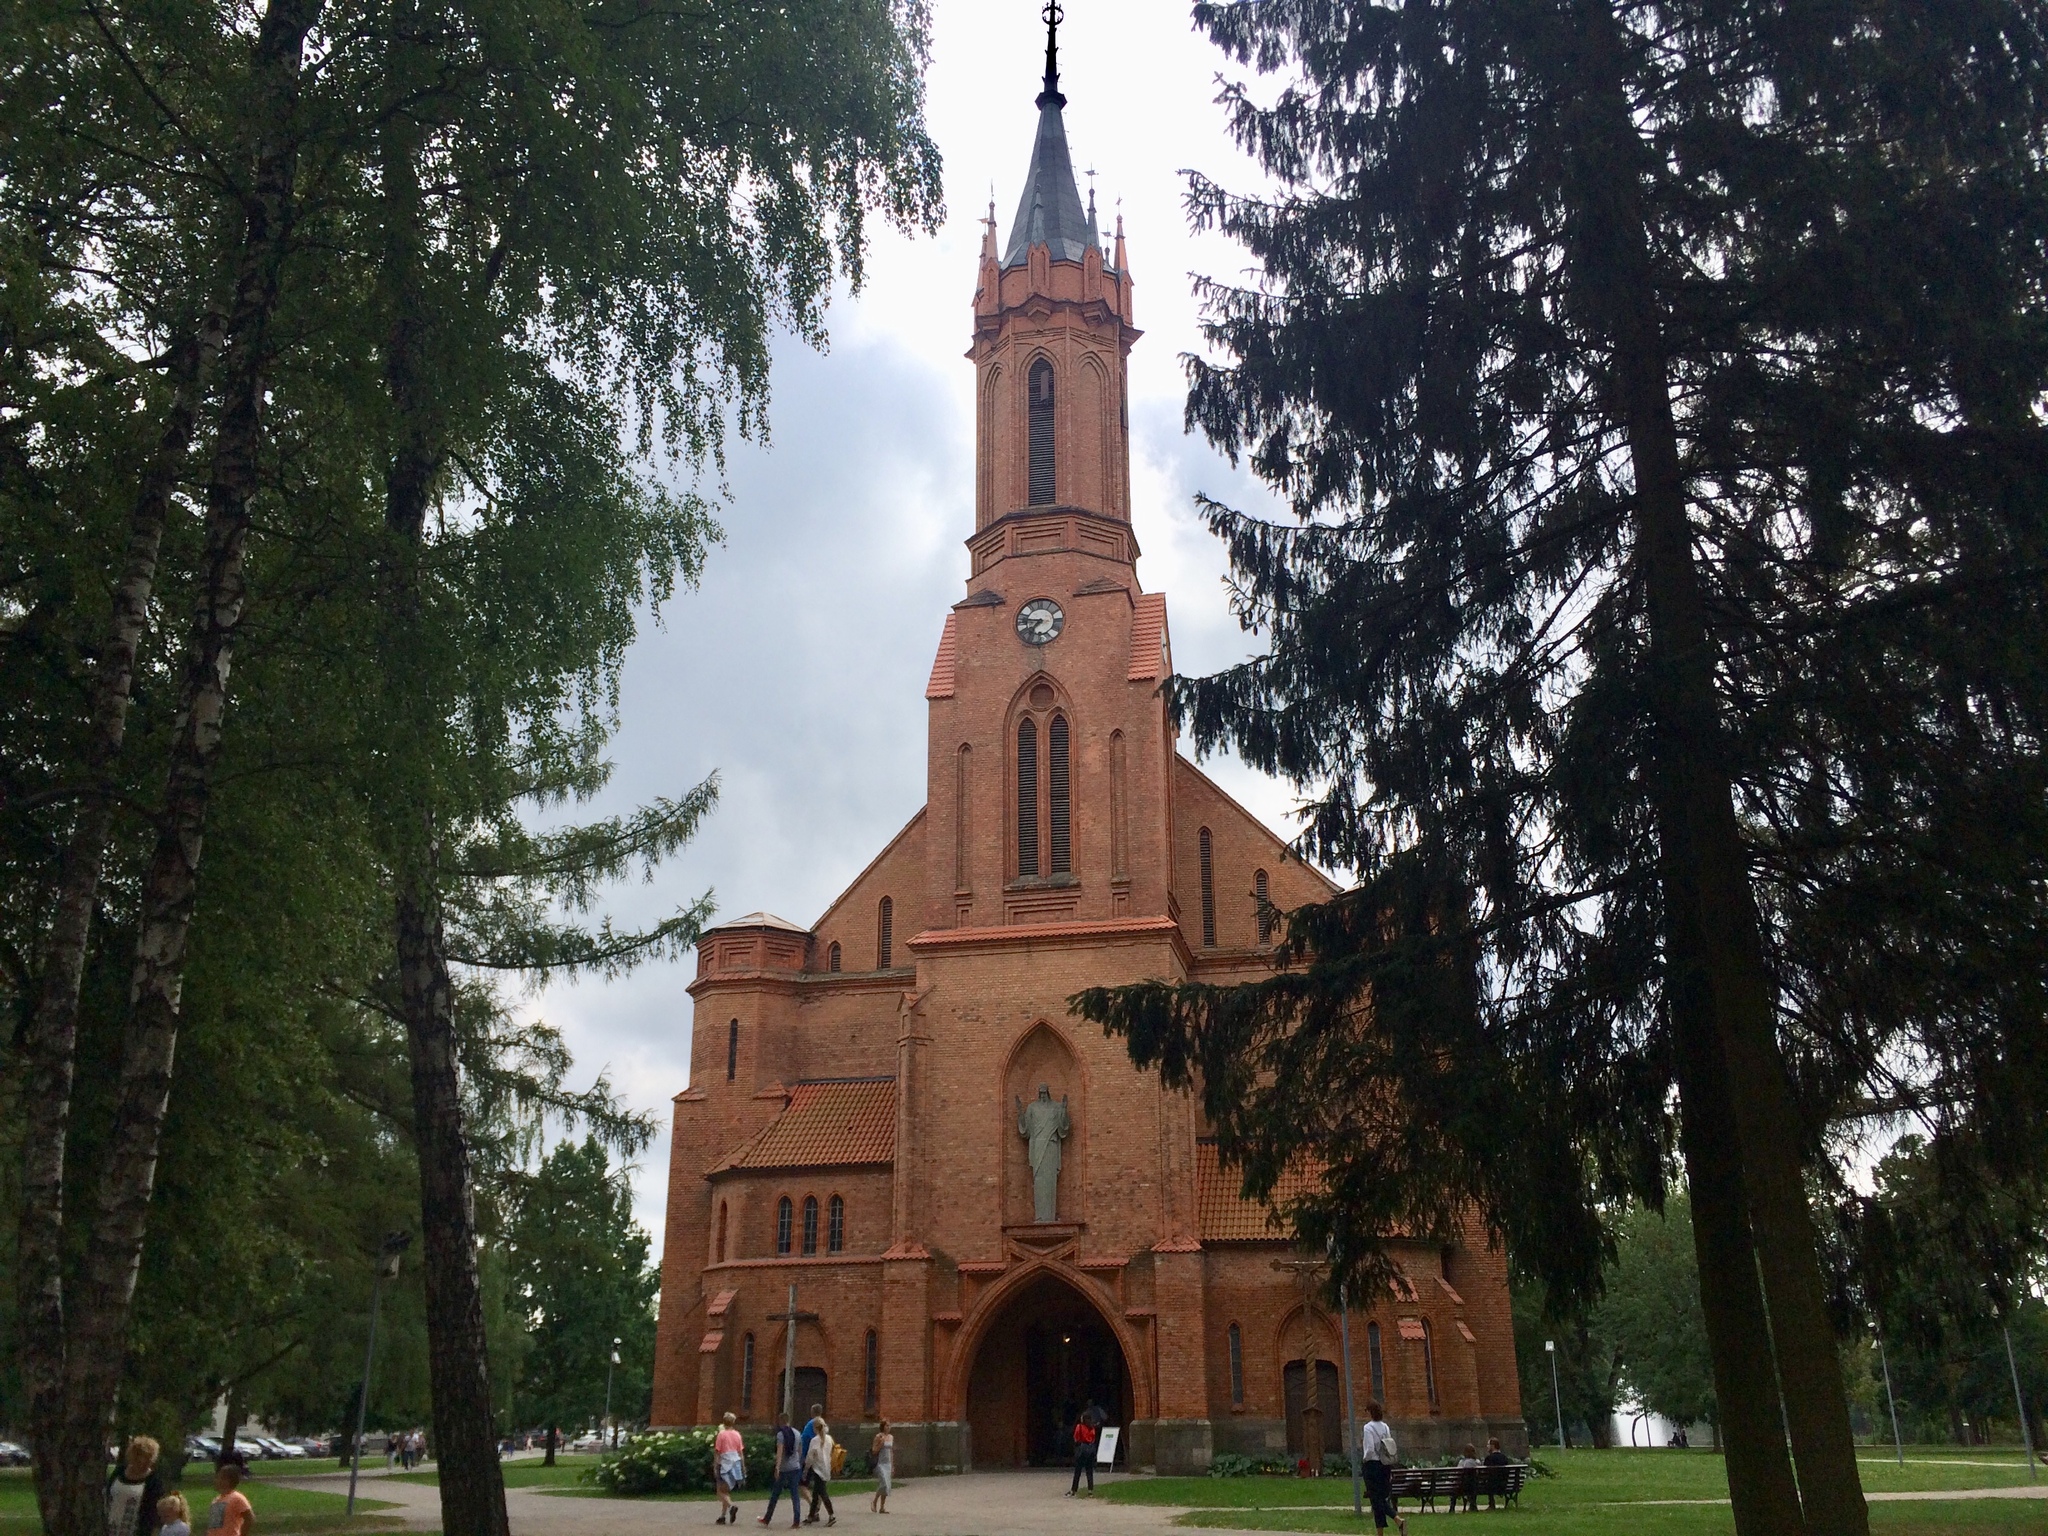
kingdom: Plantae
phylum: Tracheophyta
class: Pinopsida
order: Pinales
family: Pinaceae
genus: Picea
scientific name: Picea abies
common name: Norway spruce
